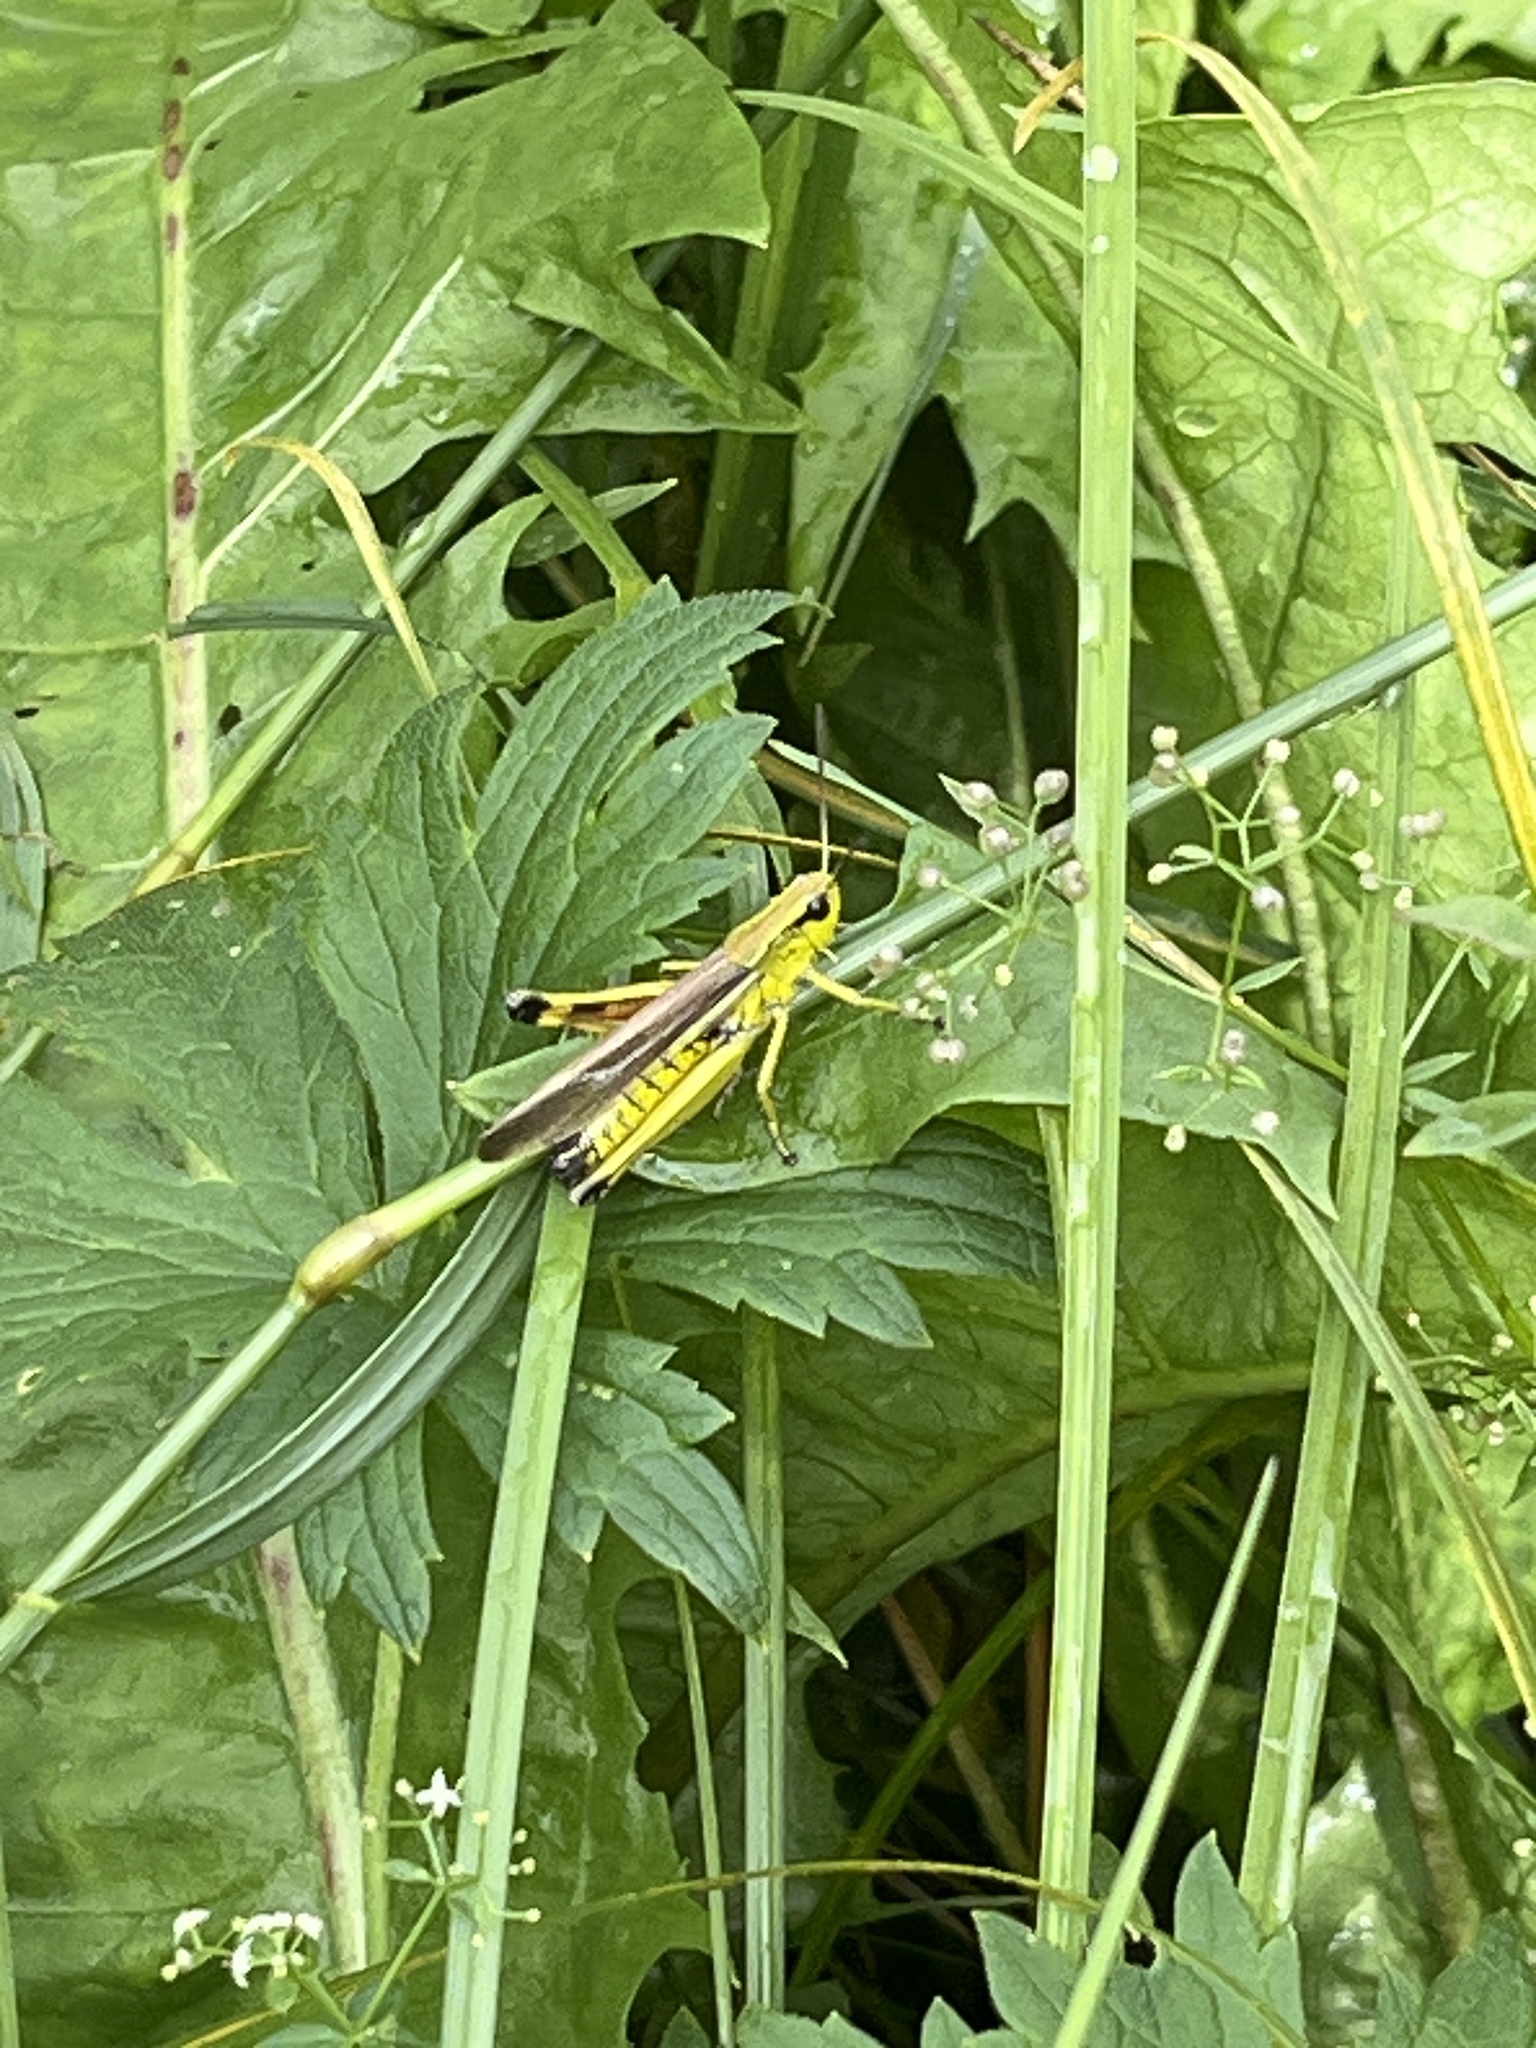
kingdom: Animalia
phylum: Arthropoda
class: Insecta
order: Orthoptera
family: Acrididae
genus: Stethophyma
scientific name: Stethophyma grossum
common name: Large marsh grasshopper
